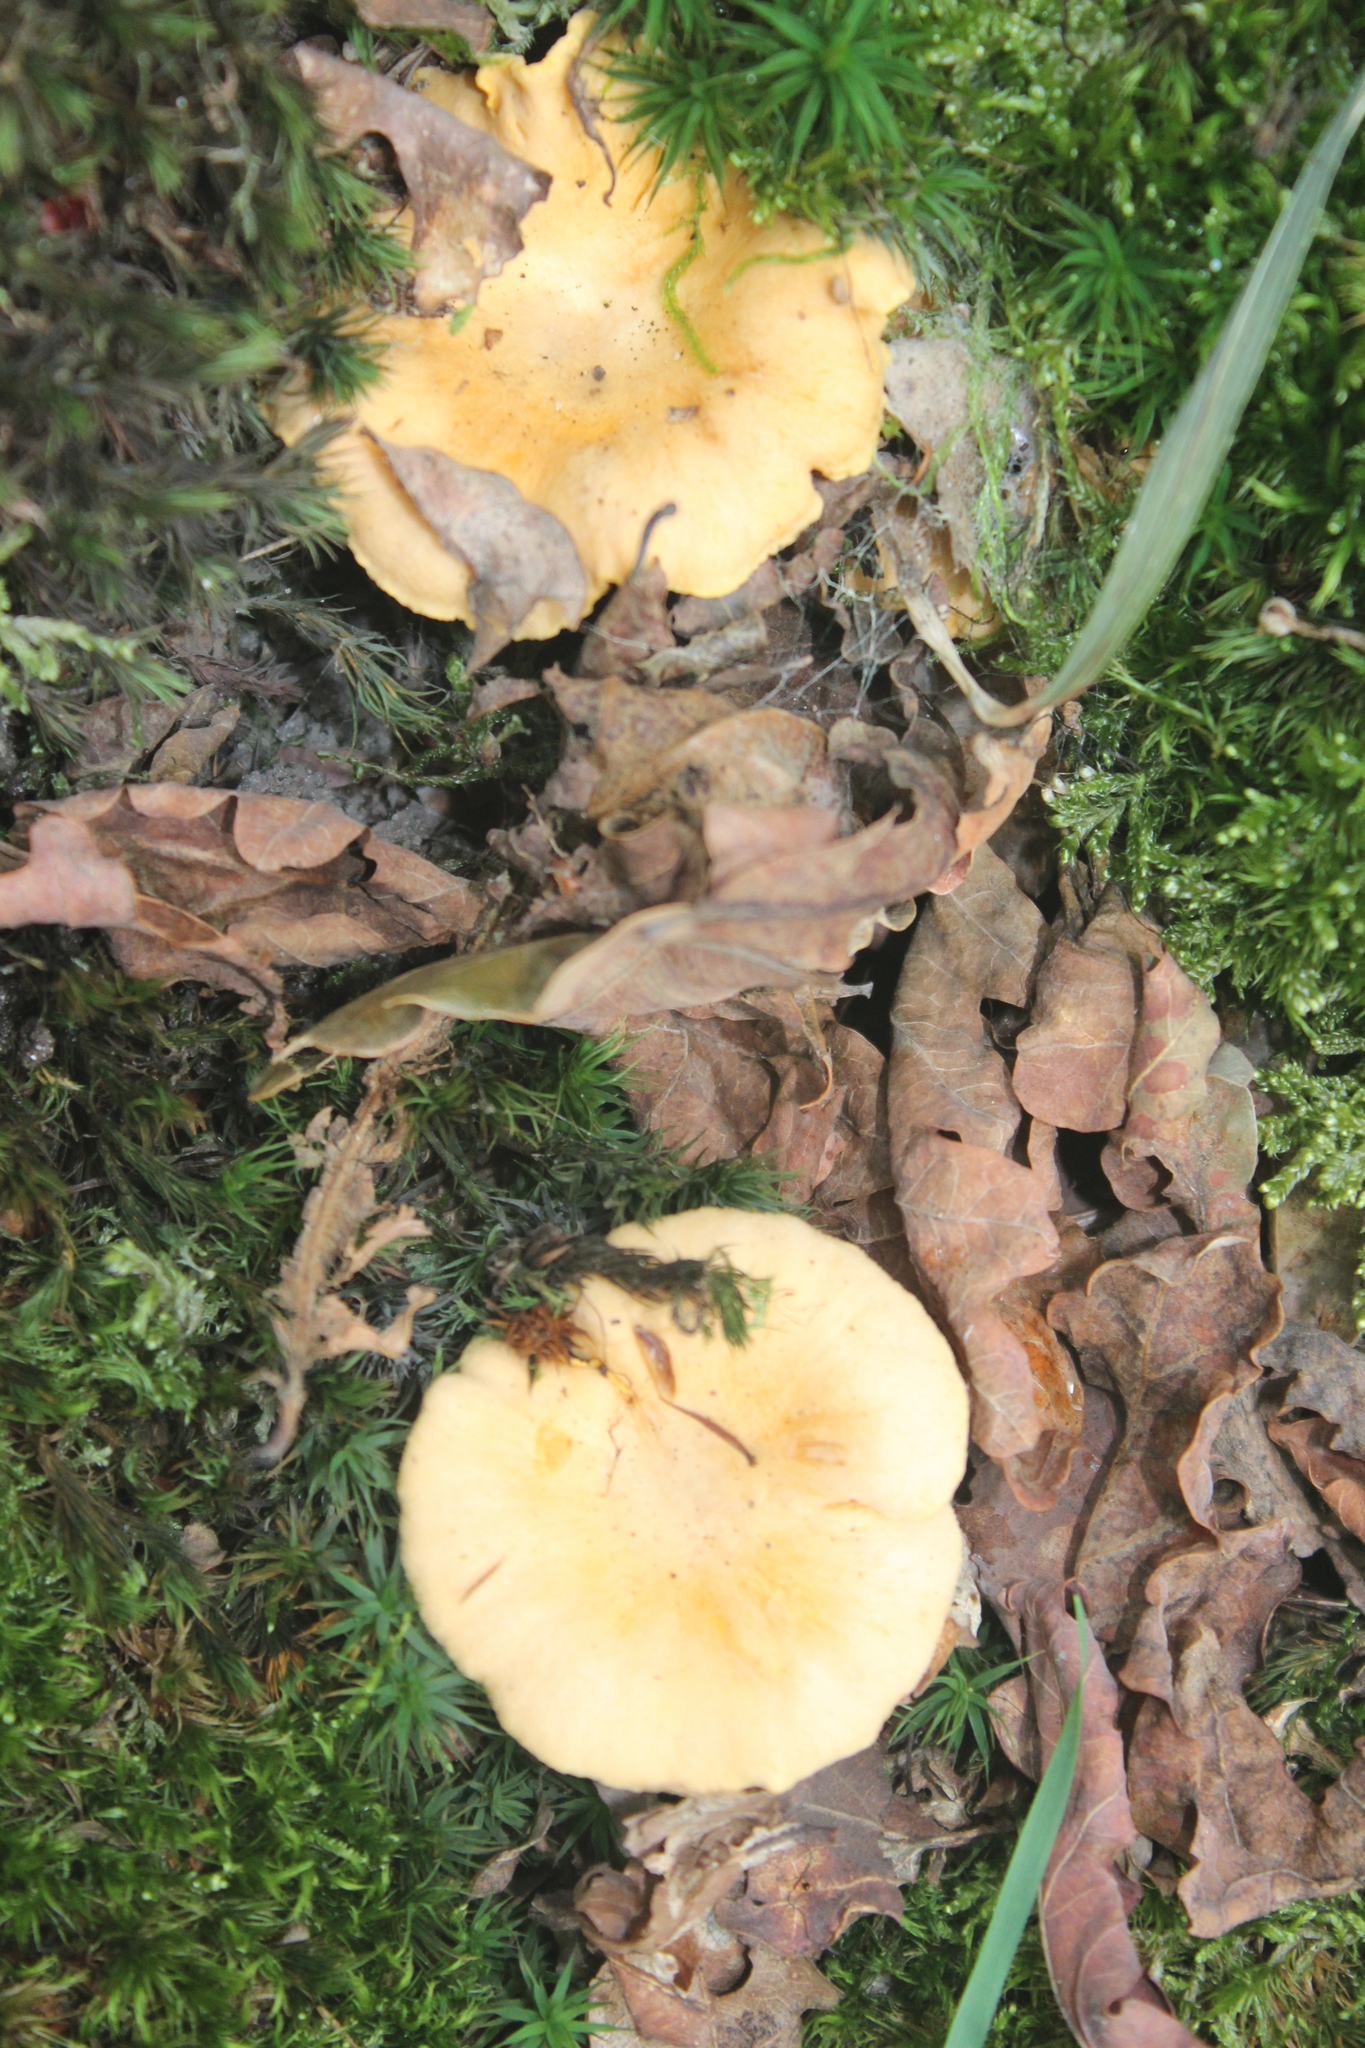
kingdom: Fungi
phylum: Basidiomycota
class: Agaricomycetes
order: Cantharellales
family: Hydnaceae
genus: Cantharellus
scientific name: Cantharellus cibarius
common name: Chanterelle
